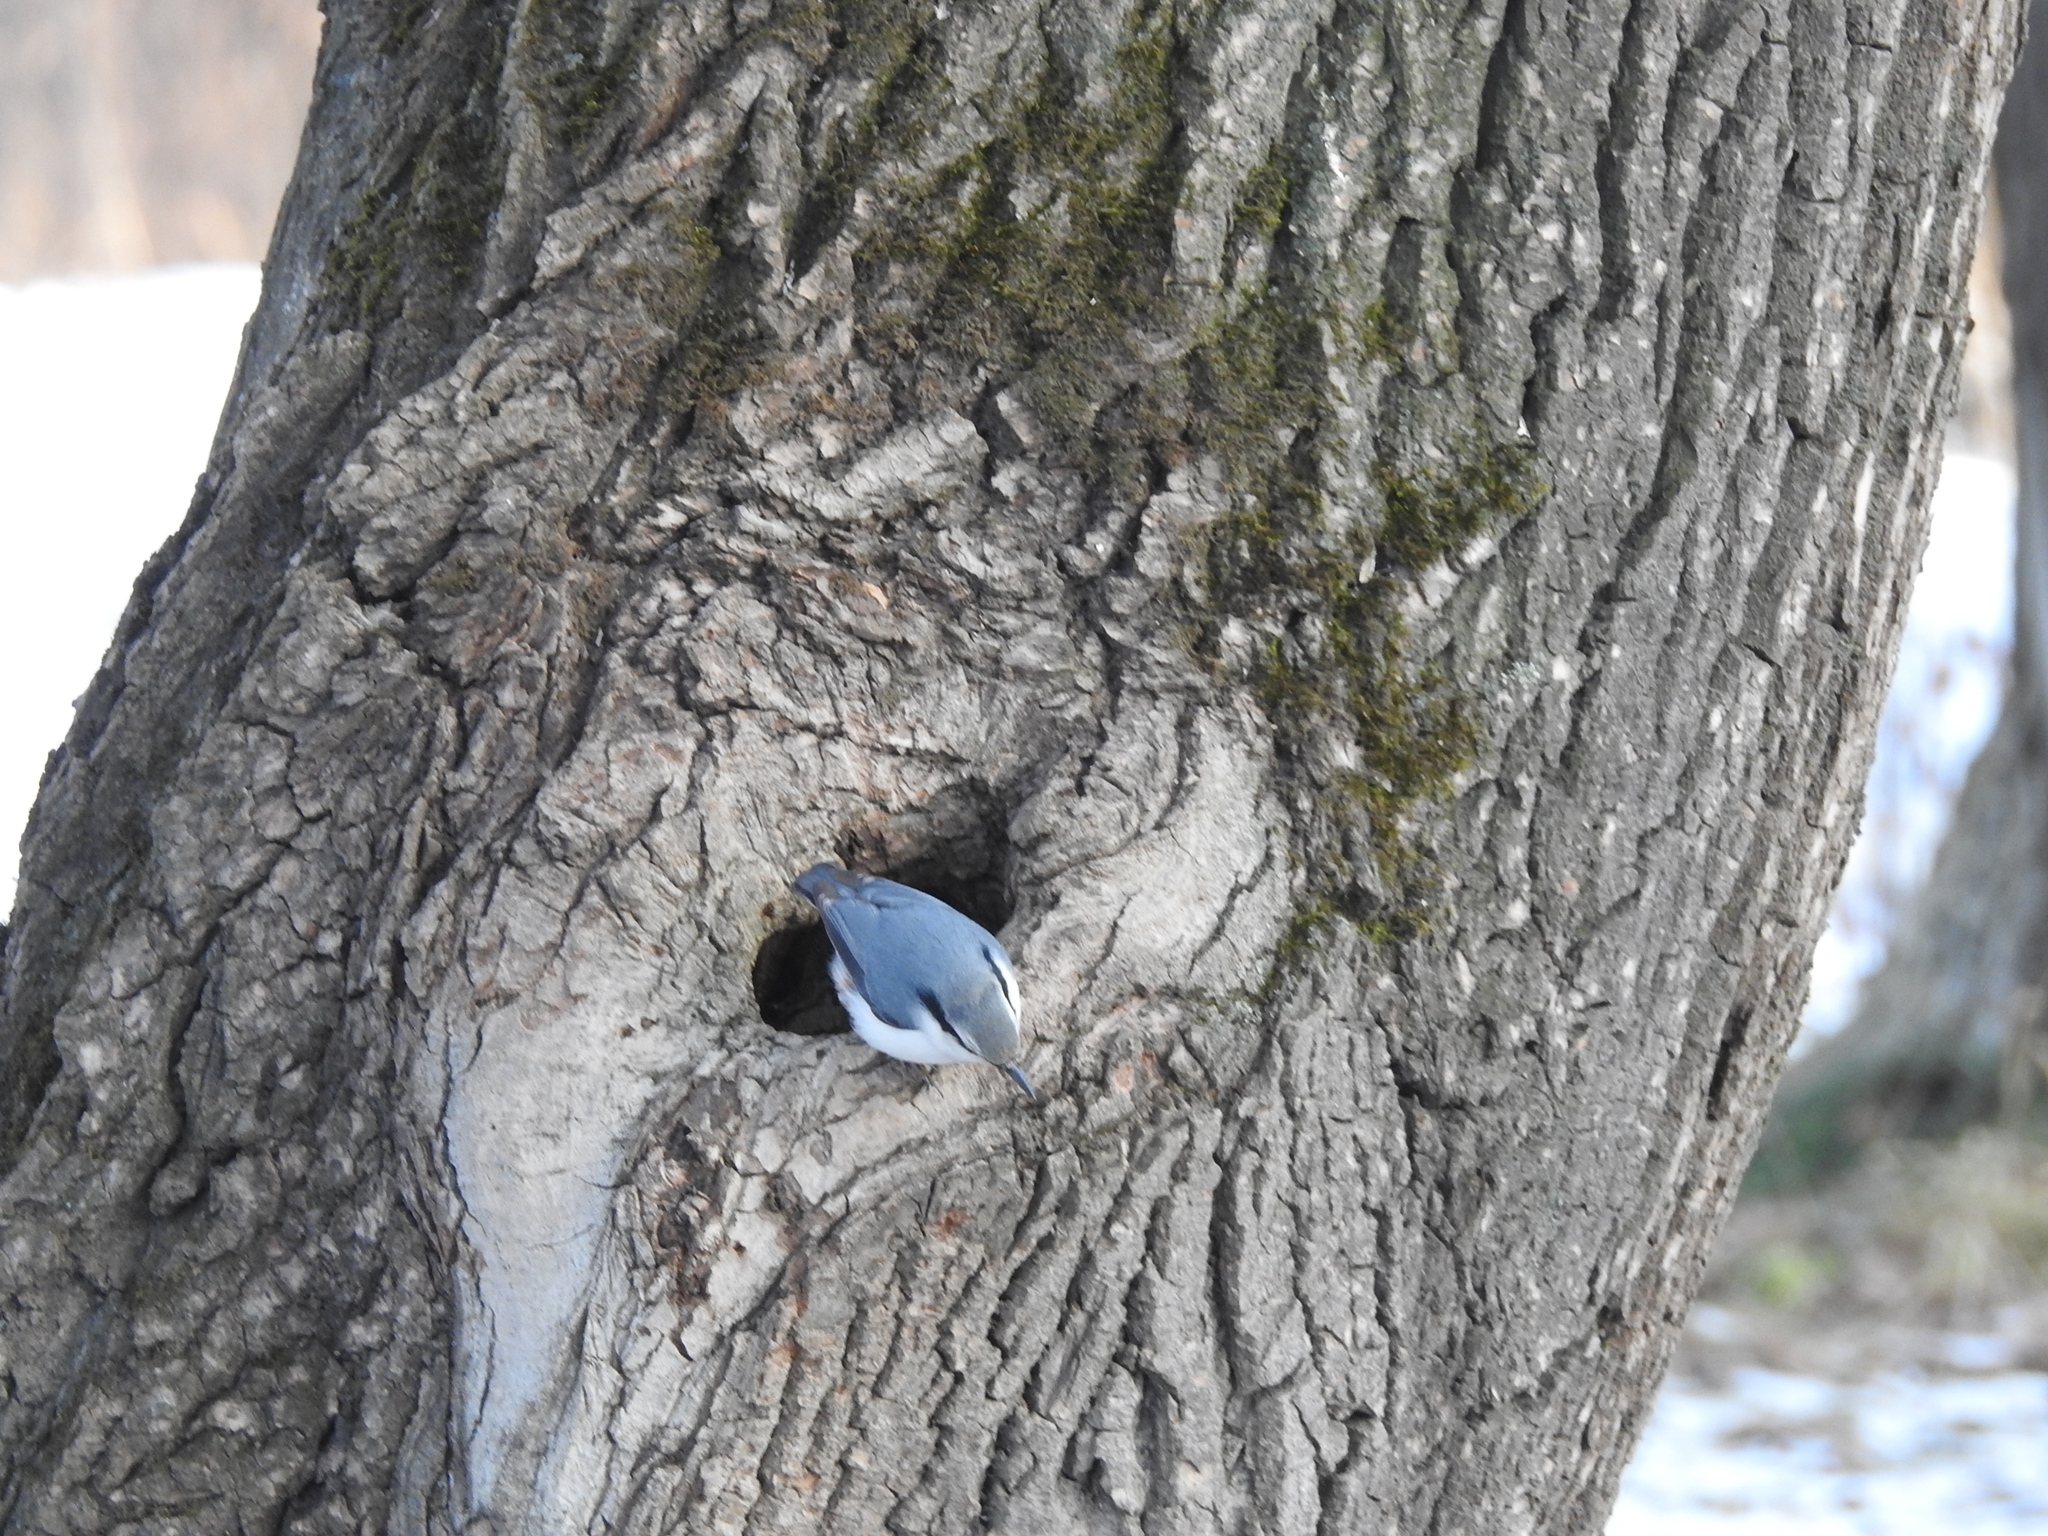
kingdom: Animalia
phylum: Chordata
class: Aves
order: Passeriformes
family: Sittidae
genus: Sitta
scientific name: Sitta europaea
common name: Eurasian nuthatch
